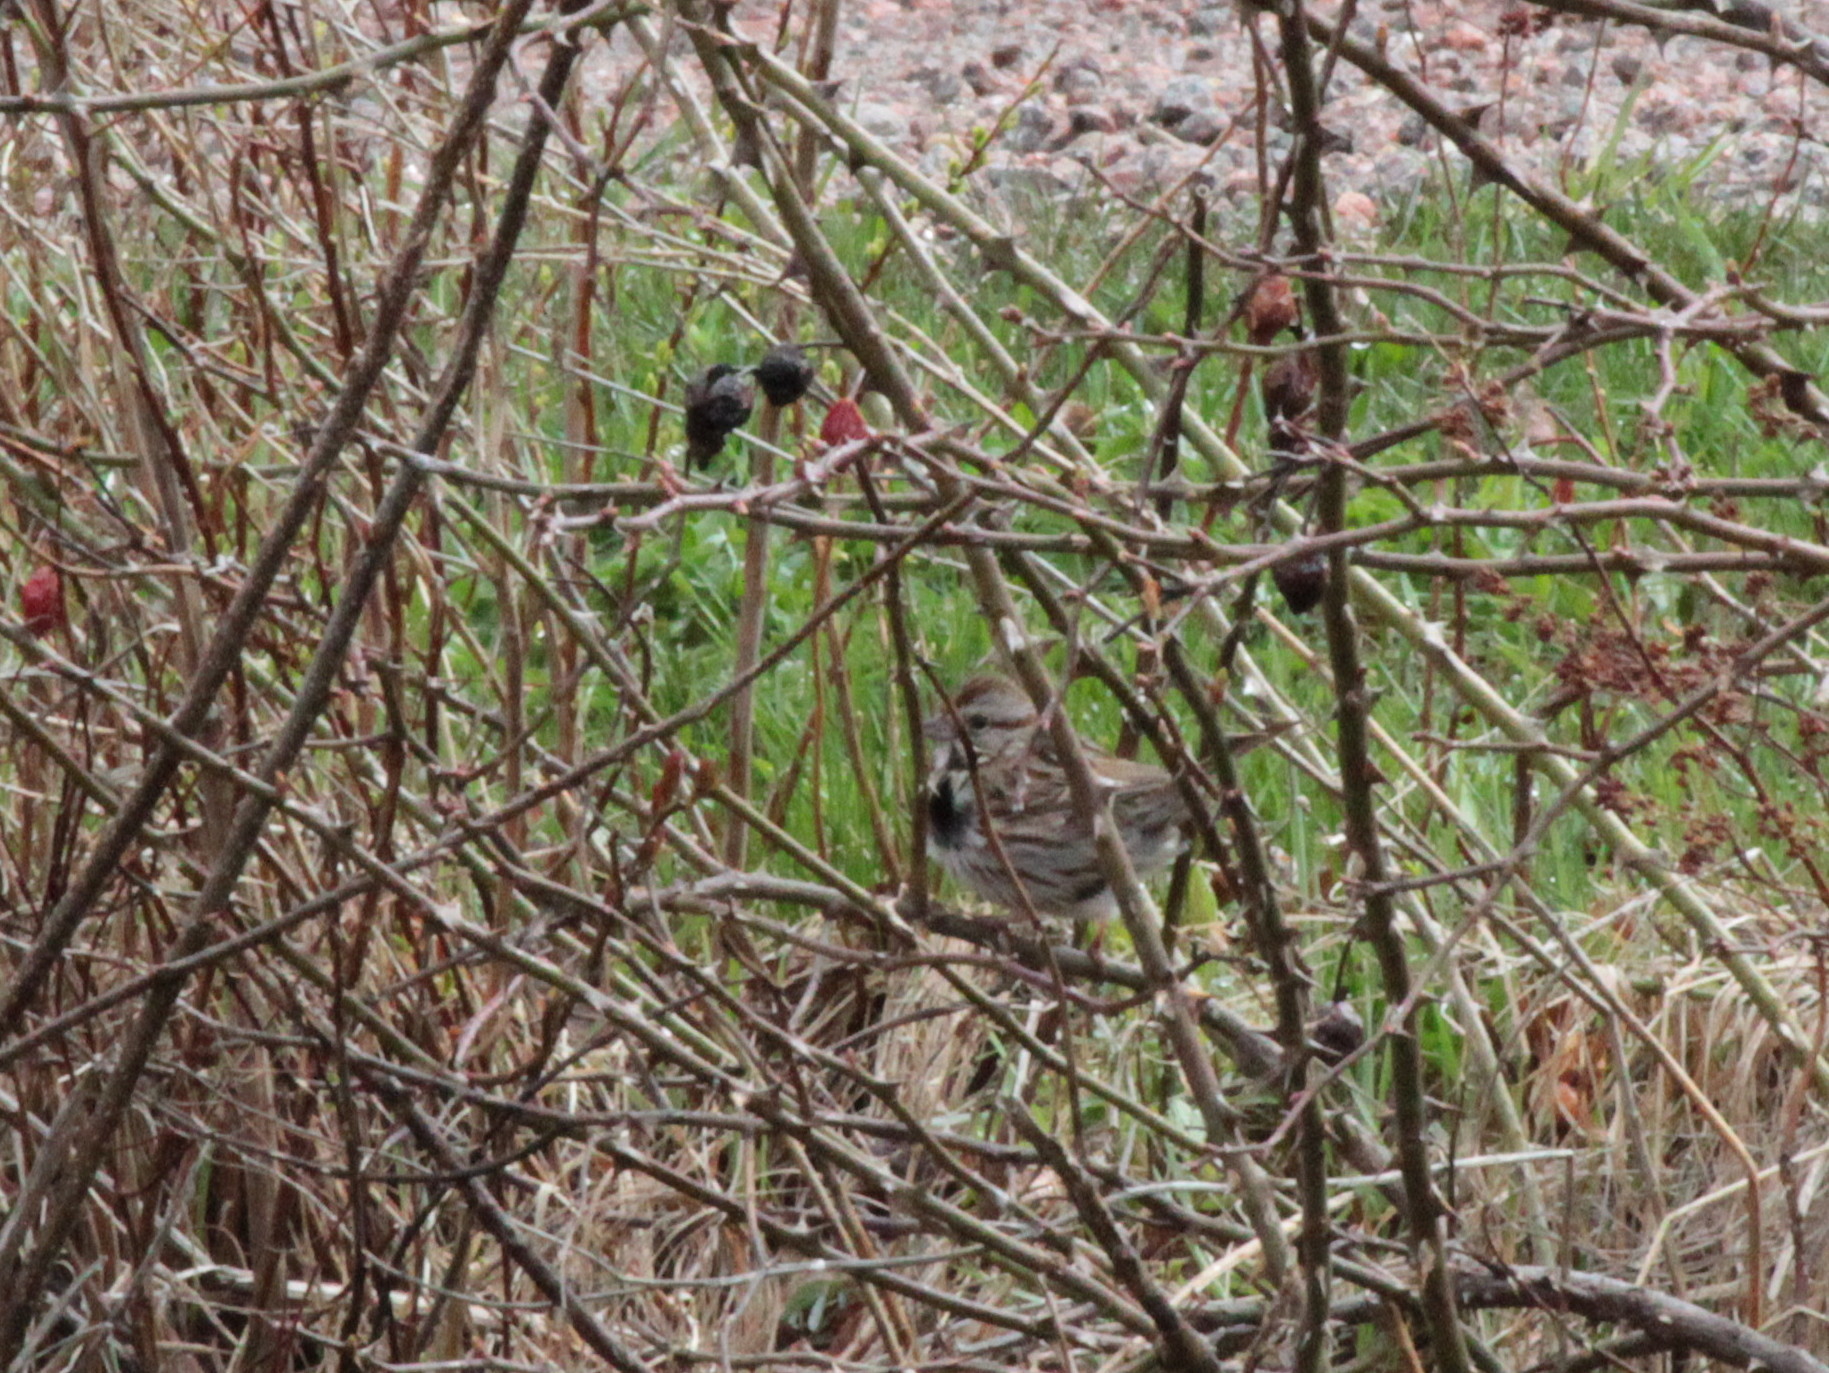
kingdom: Animalia
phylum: Chordata
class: Aves
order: Passeriformes
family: Passerellidae
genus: Melospiza
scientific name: Melospiza melodia
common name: Song sparrow
